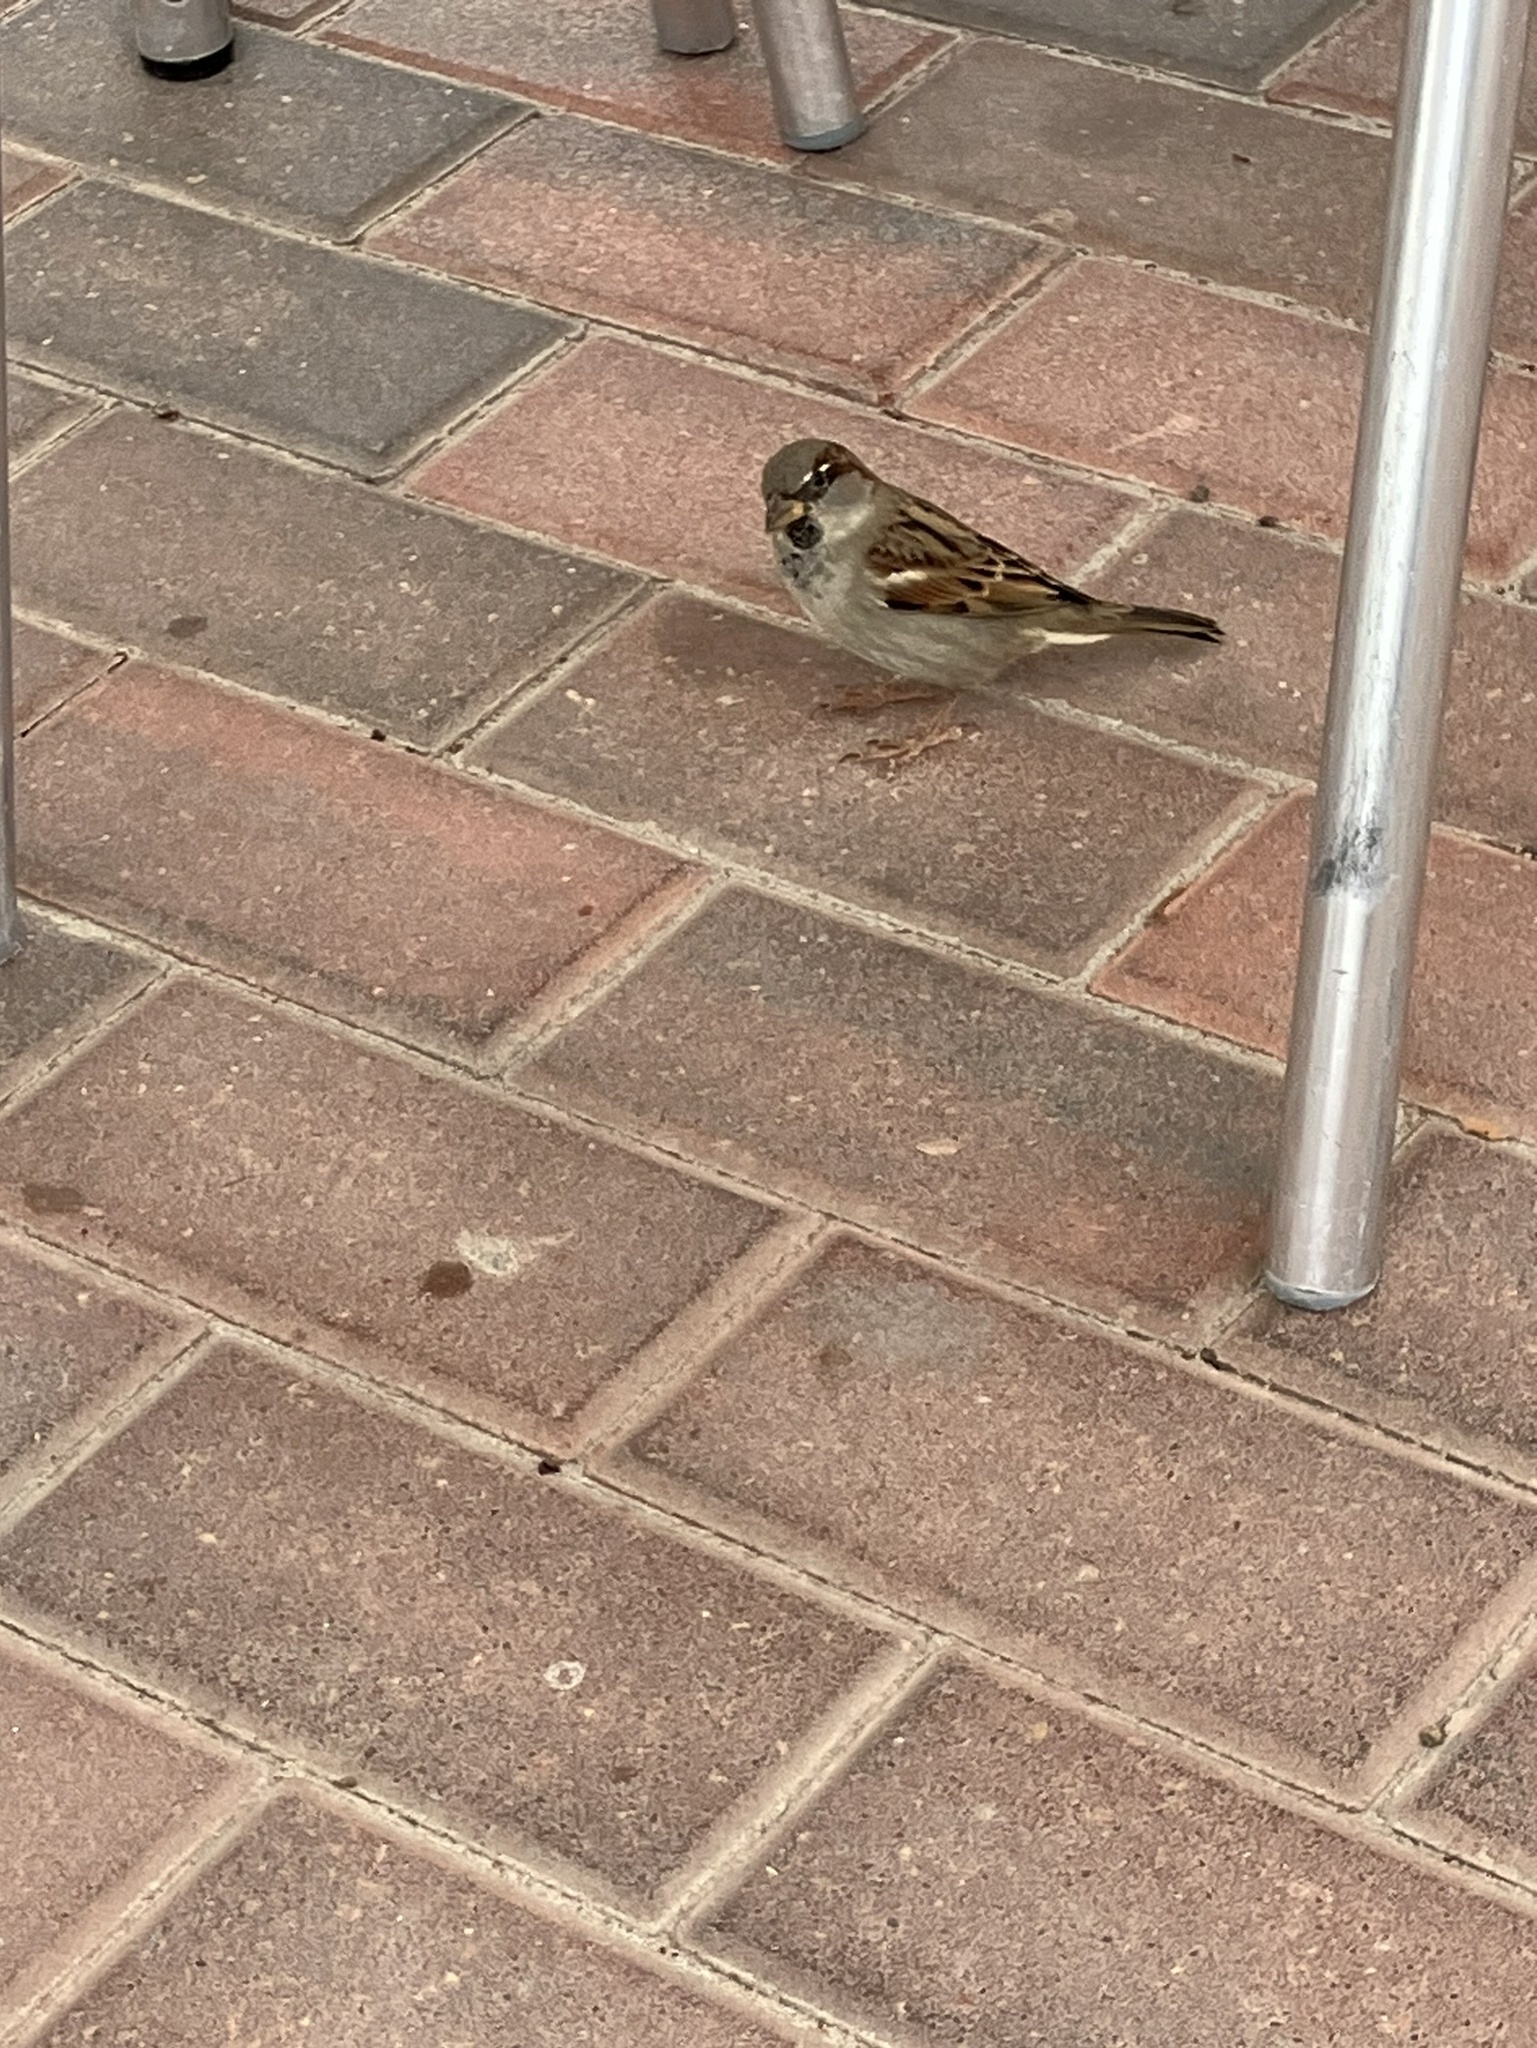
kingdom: Animalia
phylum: Chordata
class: Aves
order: Passeriformes
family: Passeridae
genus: Passer
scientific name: Passer domesticus
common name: House sparrow
